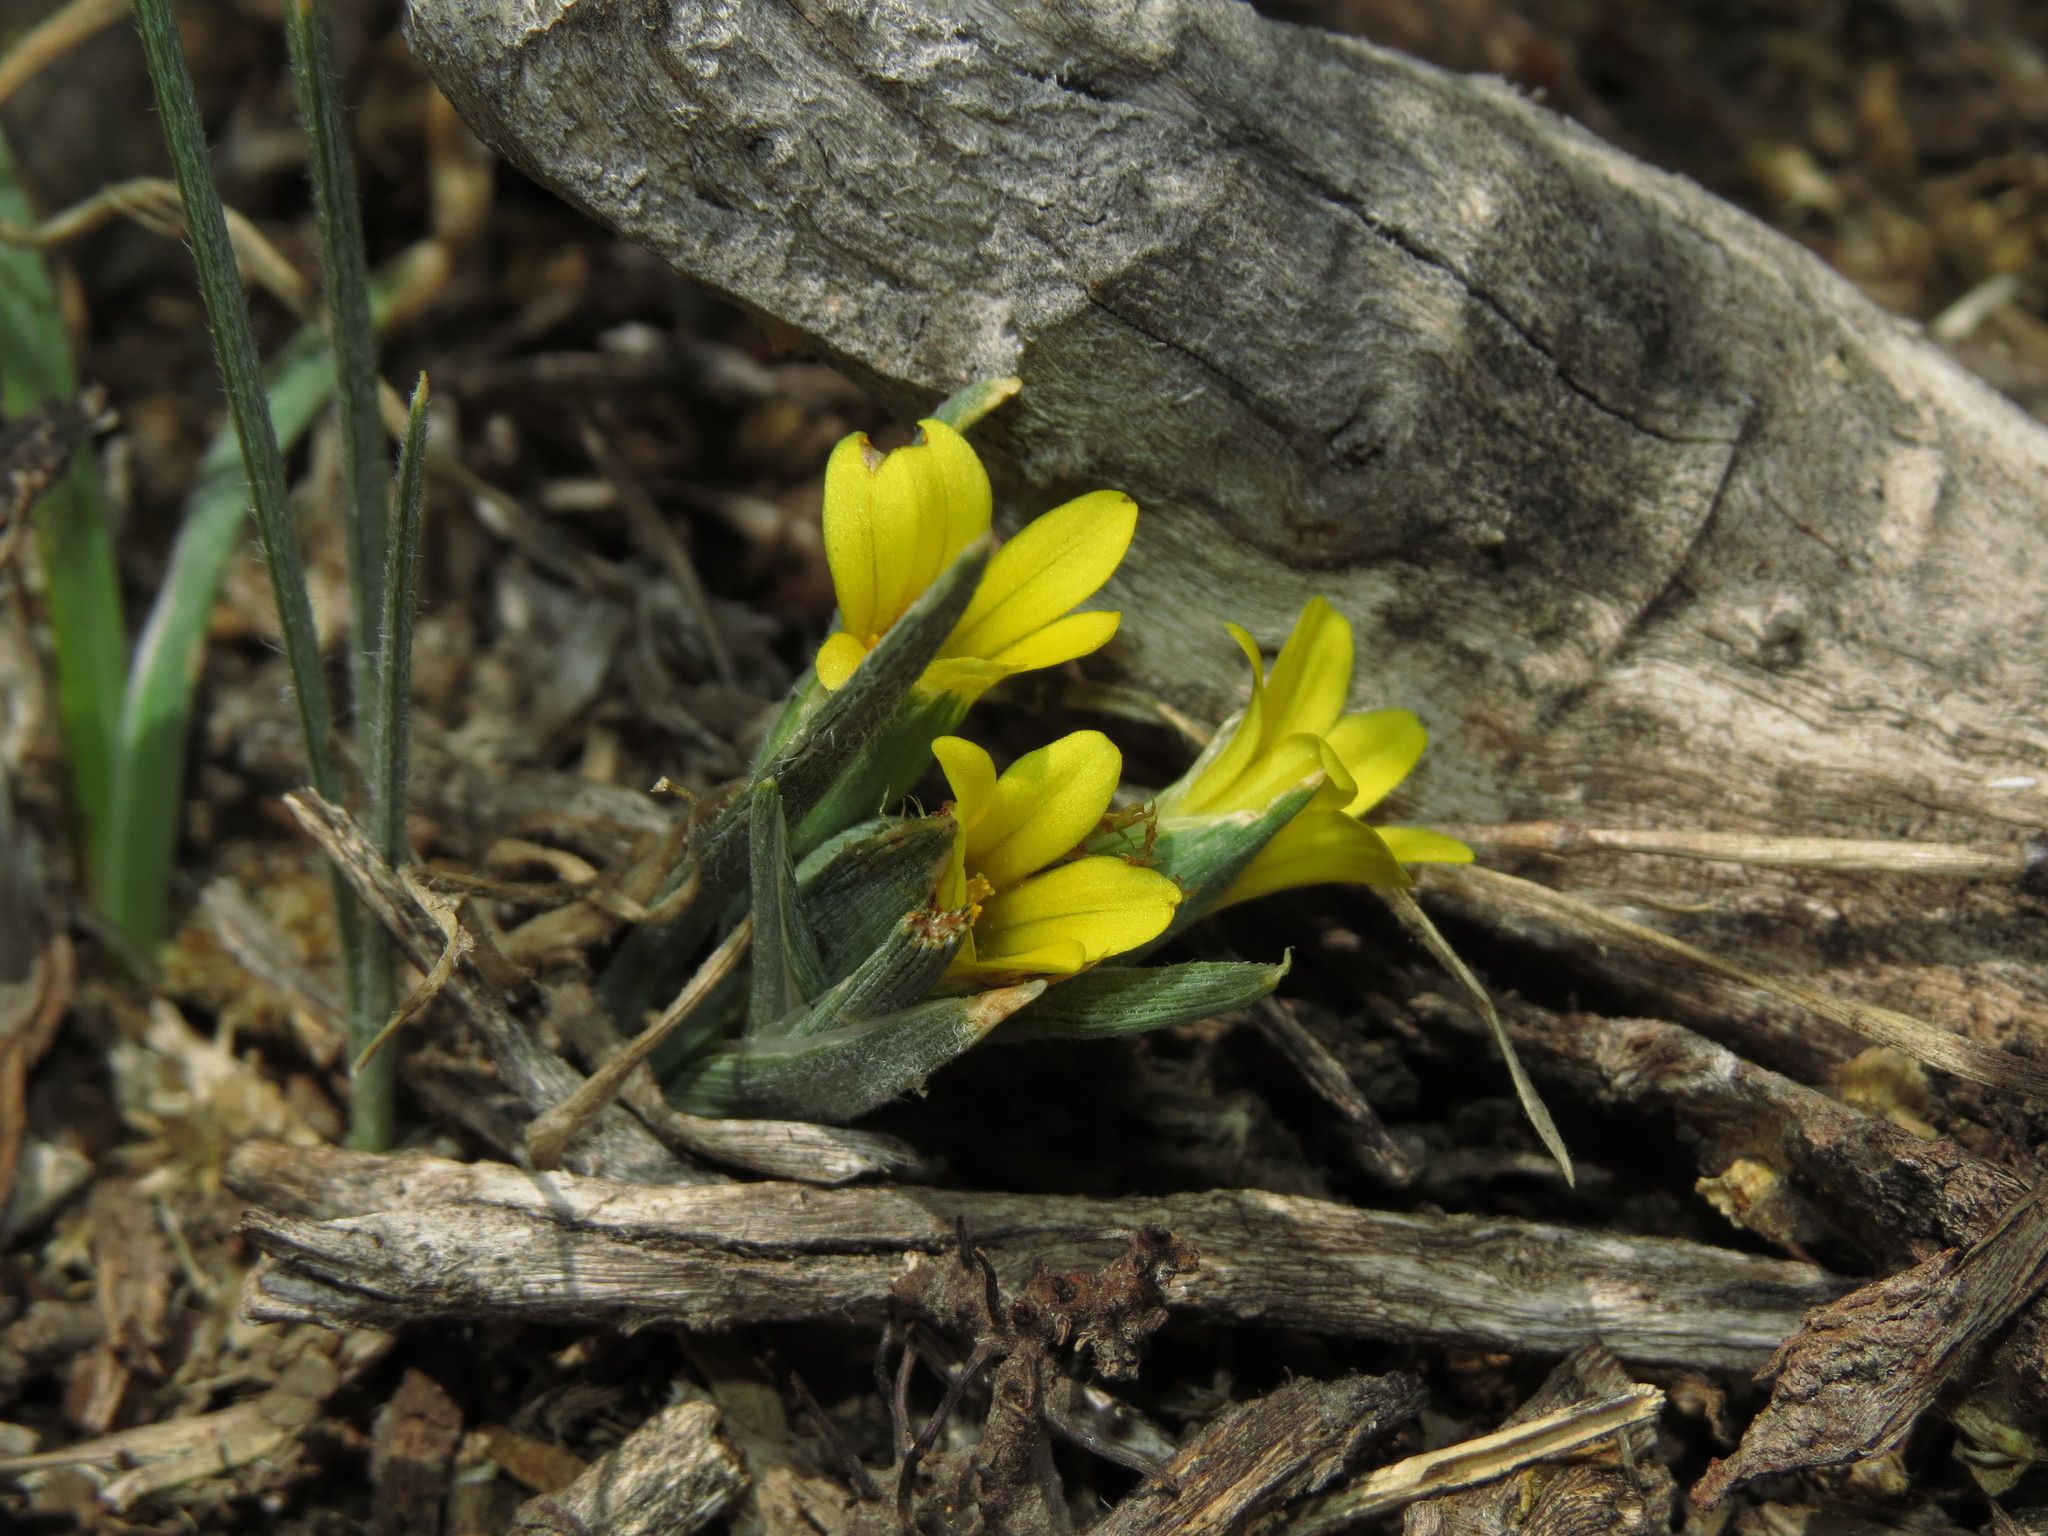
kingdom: Plantae
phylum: Tracheophyta
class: Liliopsida
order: Asparagales
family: Iridaceae
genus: Olsynium
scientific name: Olsynium chrysochromum
